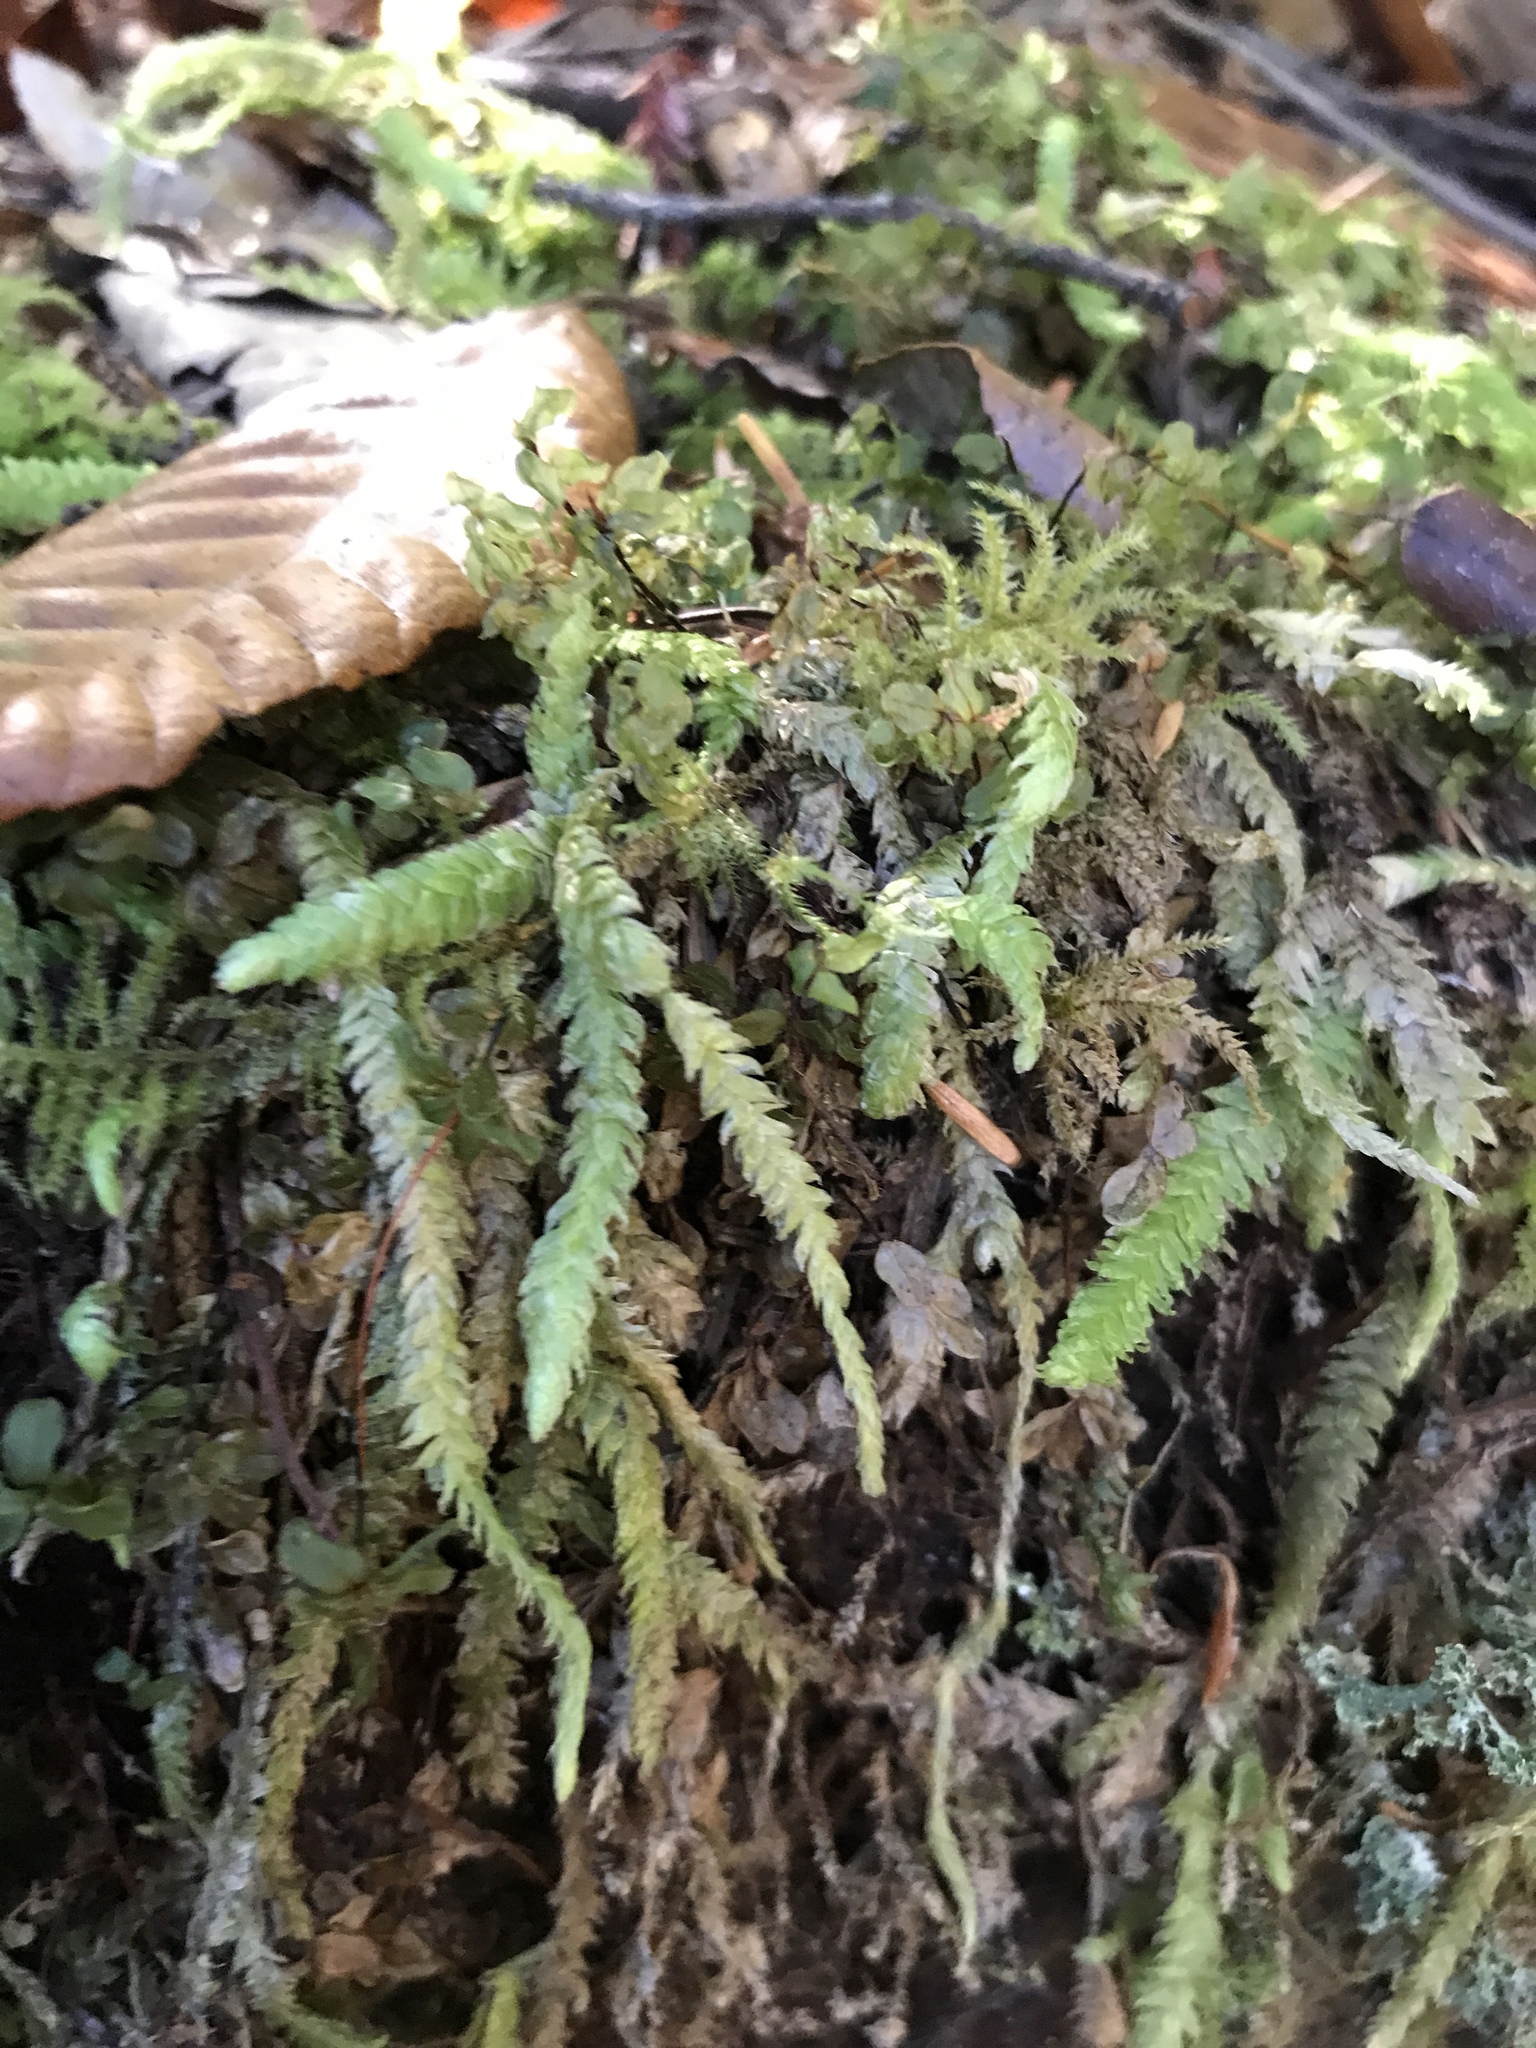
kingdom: Plantae
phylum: Bryophyta
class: Bryopsida
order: Hypnales
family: Plagiotheciaceae
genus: Plagiothecium
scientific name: Plagiothecium undulatum
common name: Waved silk-moss
